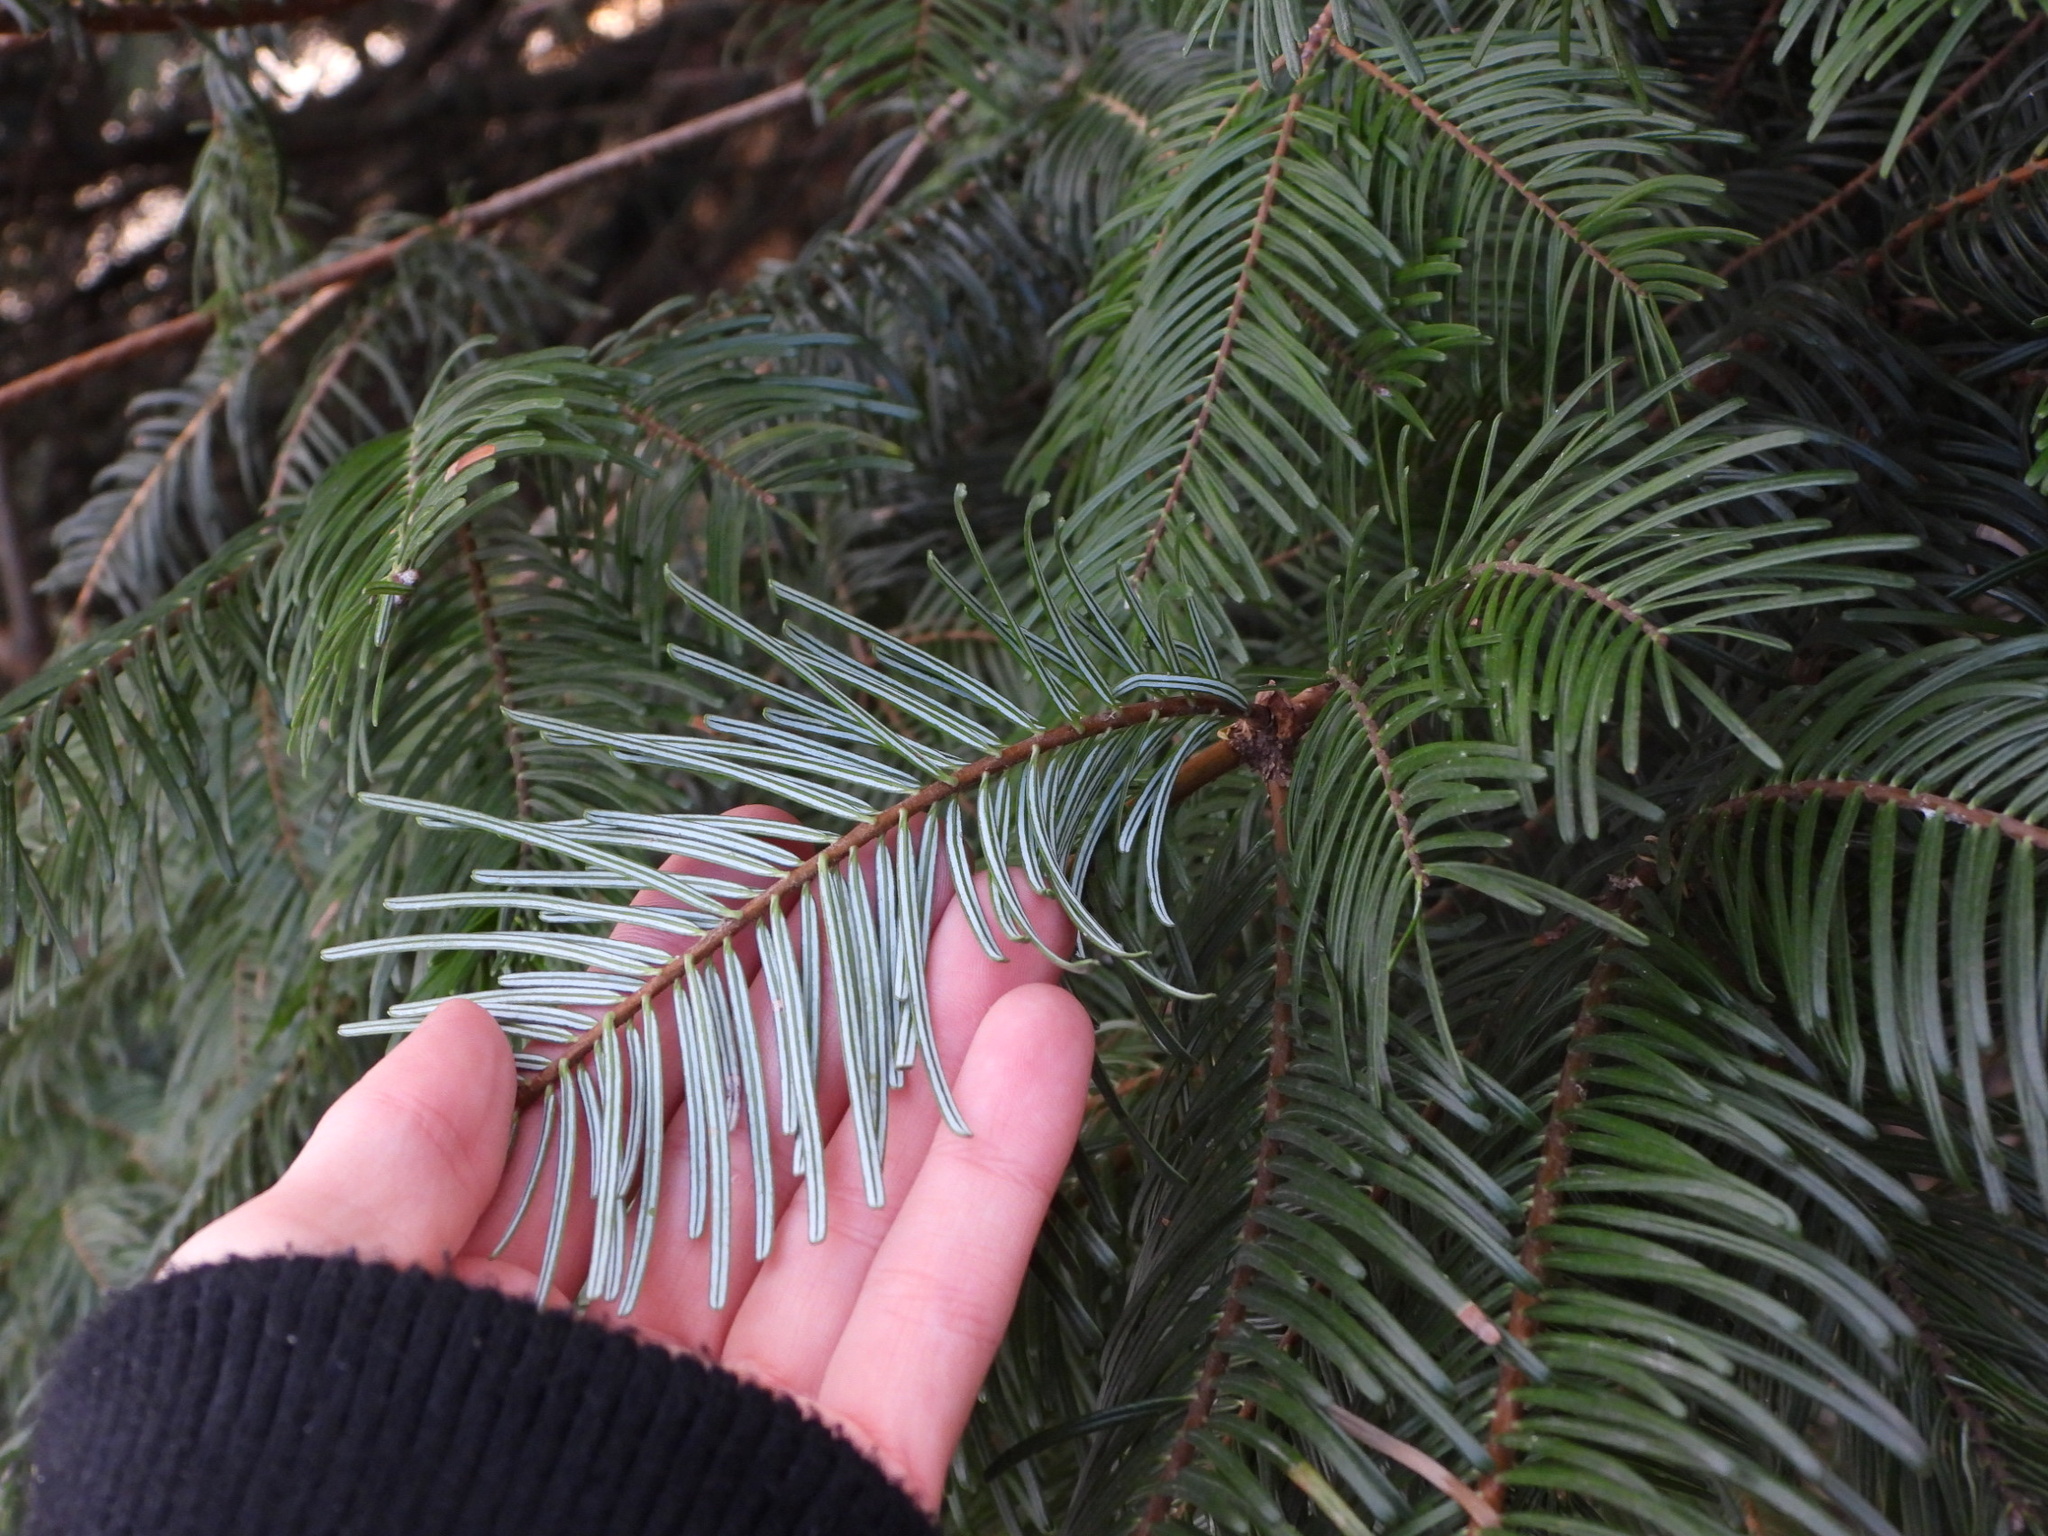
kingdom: Plantae
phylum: Tracheophyta
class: Pinopsida
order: Pinales
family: Pinaceae
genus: Abies
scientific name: Abies grandis
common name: Giant fir
